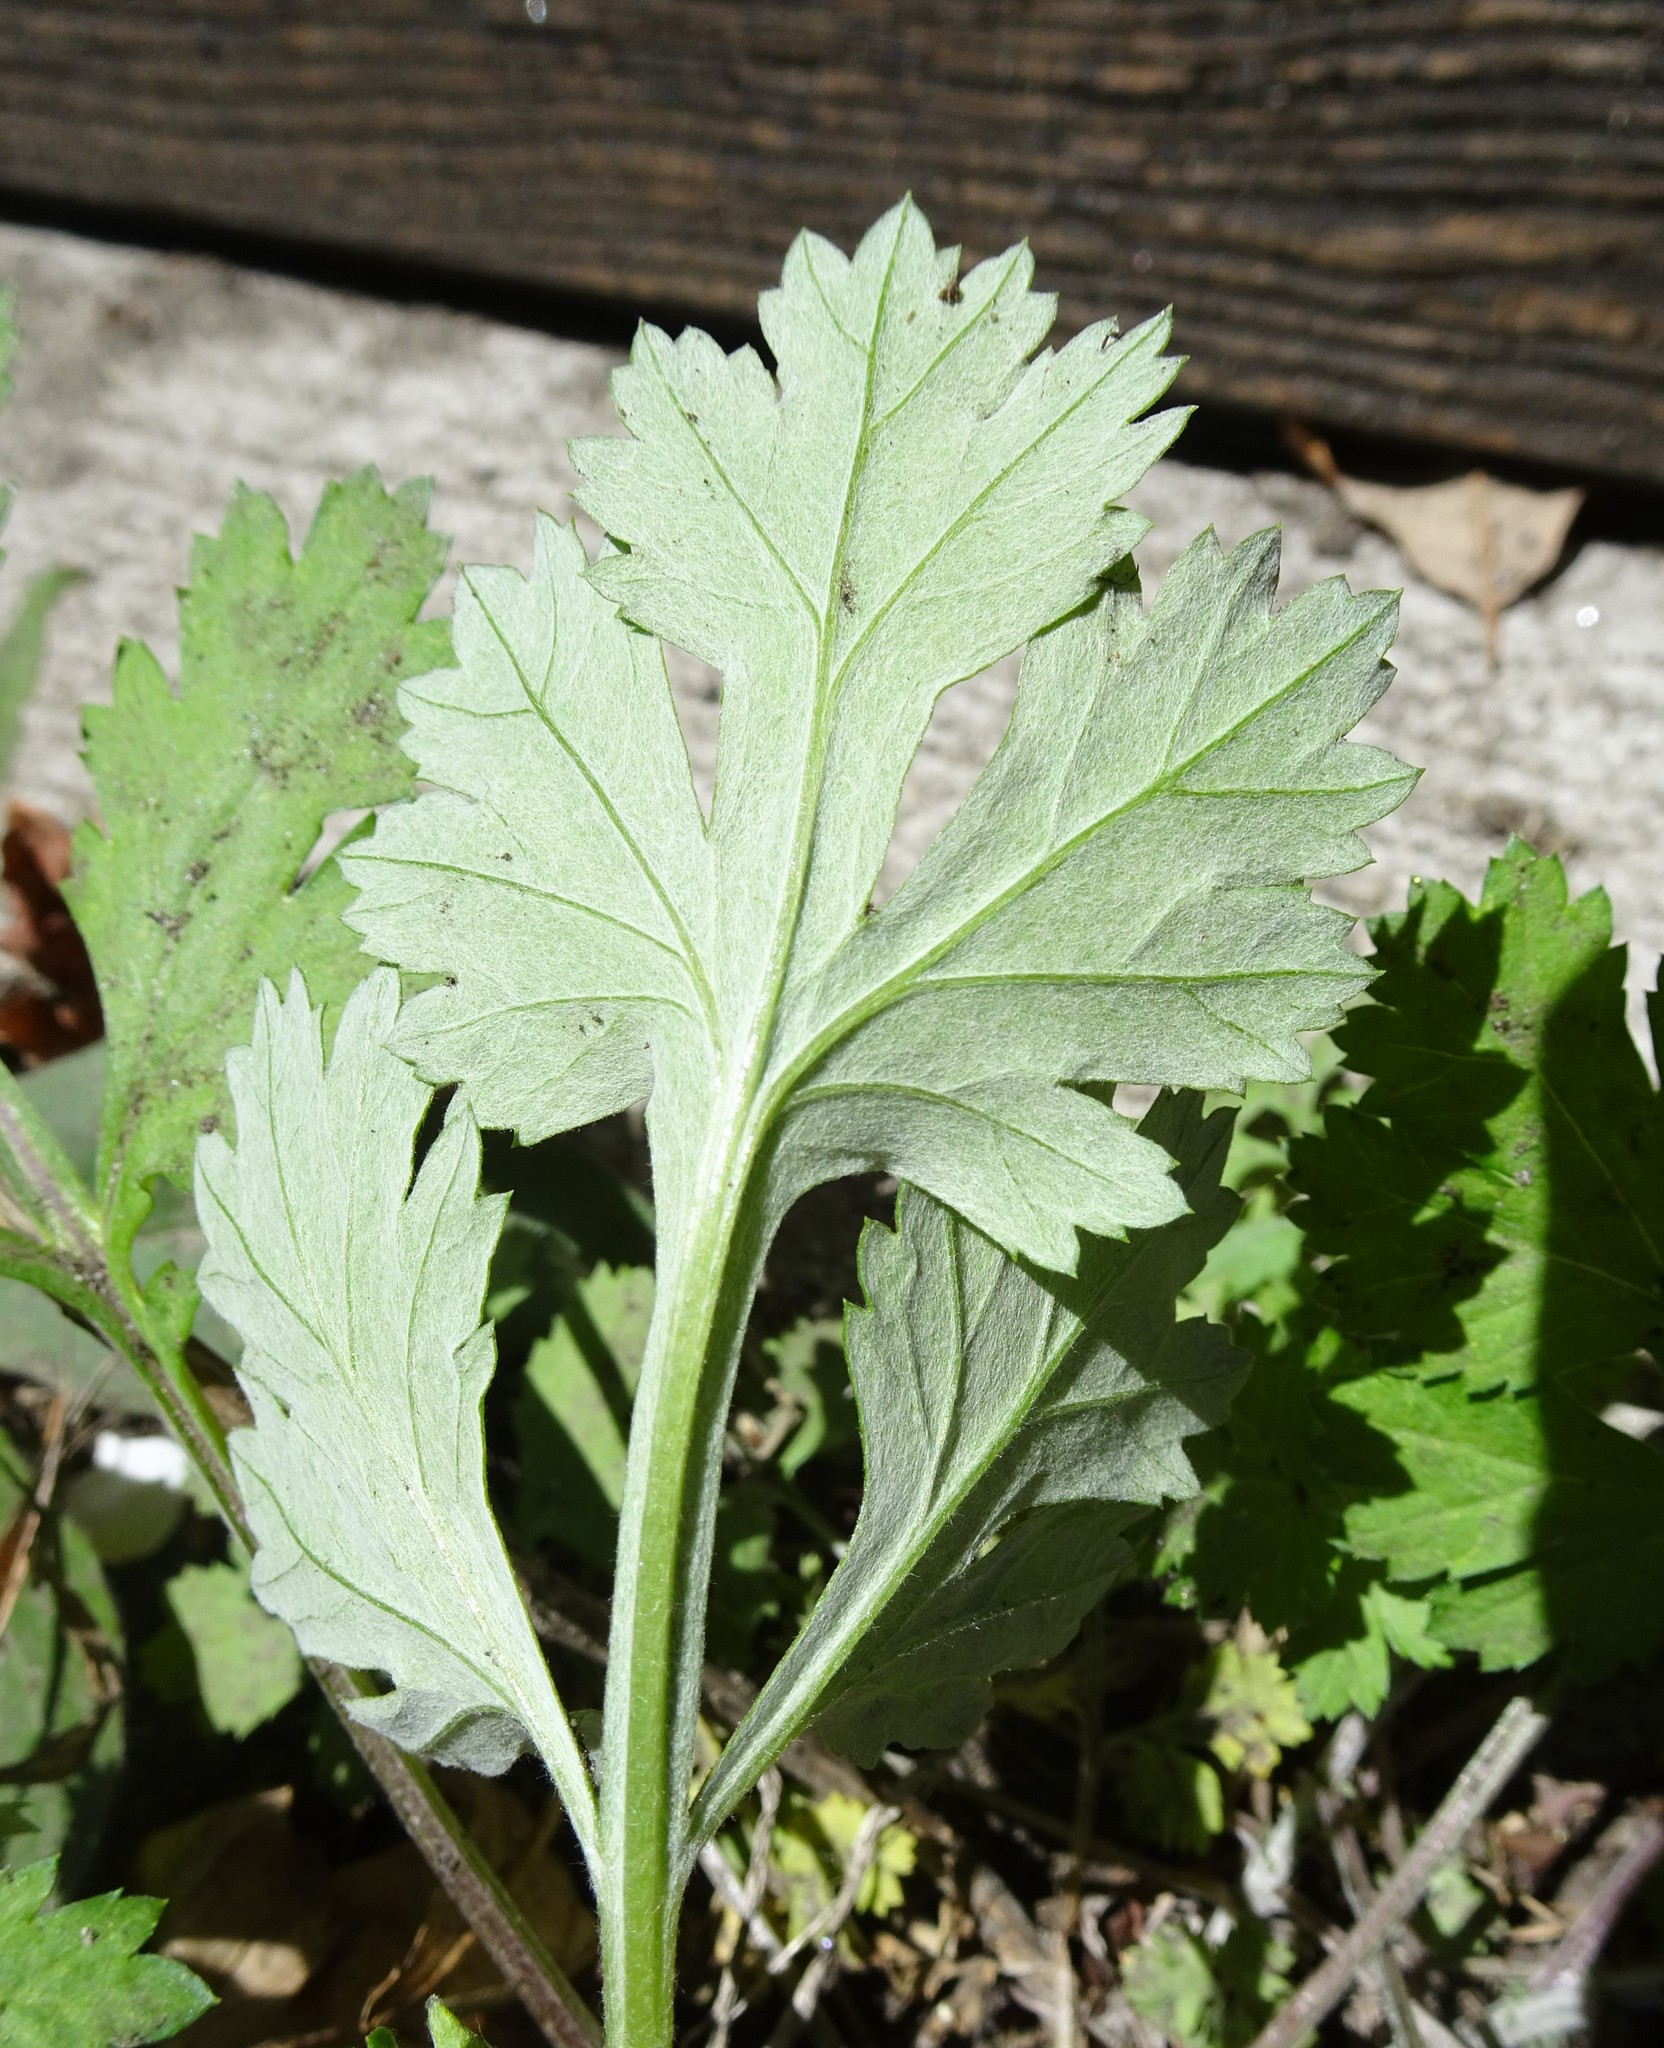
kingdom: Plantae
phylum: Tracheophyta
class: Magnoliopsida
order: Asterales
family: Asteraceae
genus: Artemisia
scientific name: Artemisia vulgaris
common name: Mugwort
